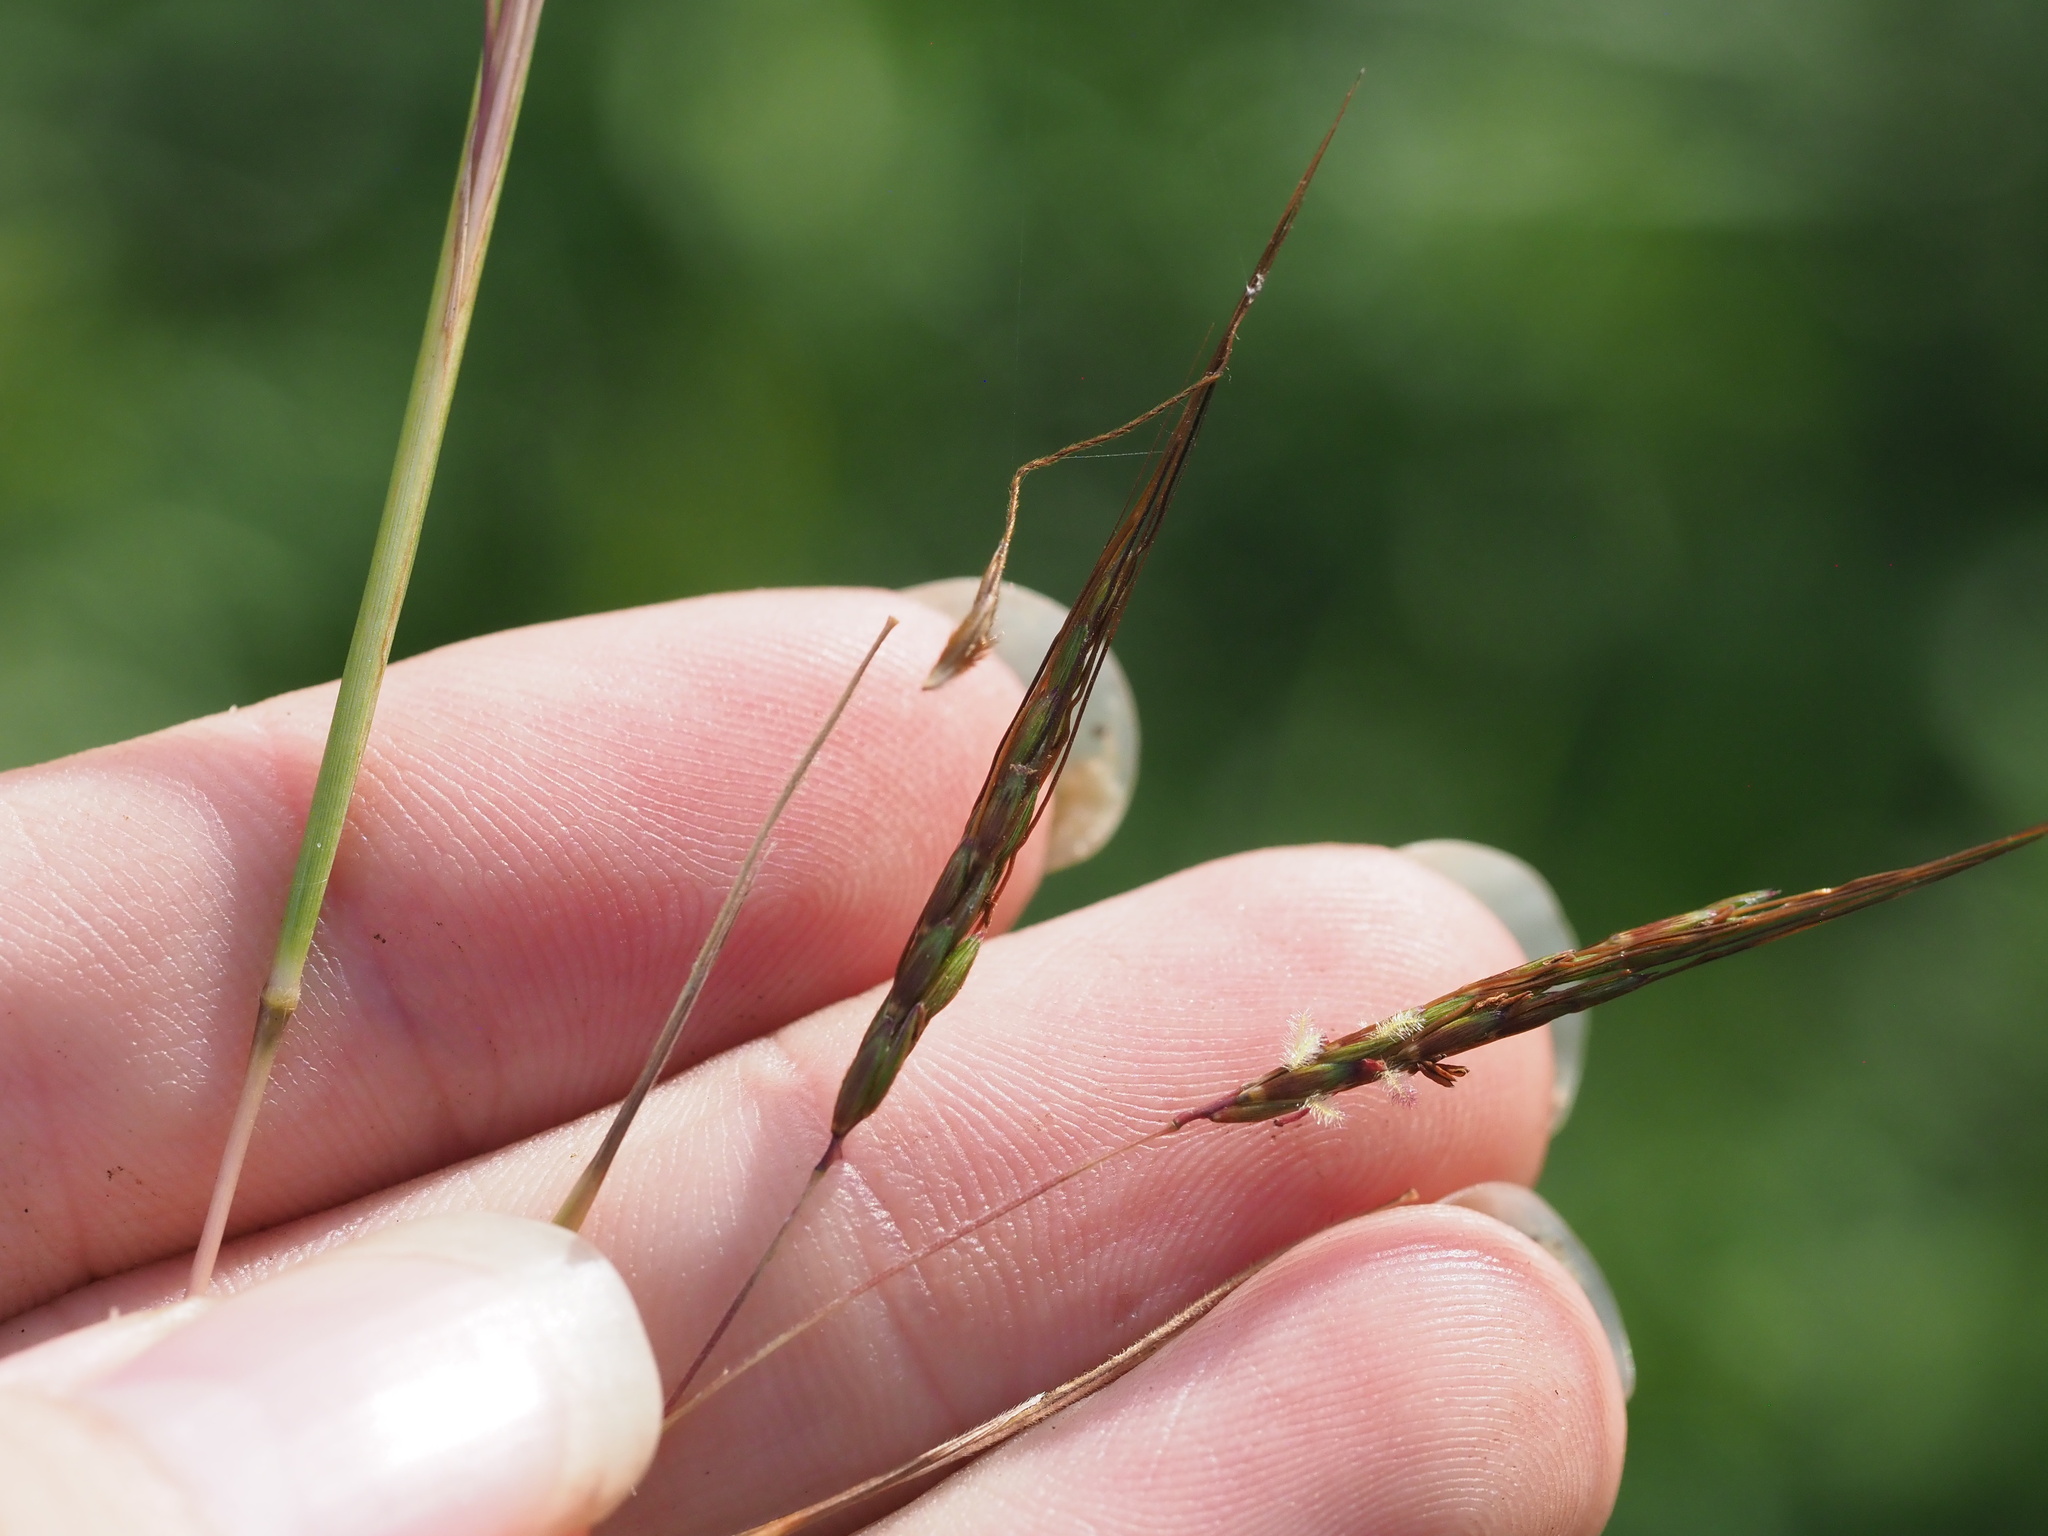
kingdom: Plantae
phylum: Tracheophyta
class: Liliopsida
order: Poales
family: Poaceae
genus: Hyparrhenia
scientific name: Hyparrhenia rufa
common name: Jaraguagrass
